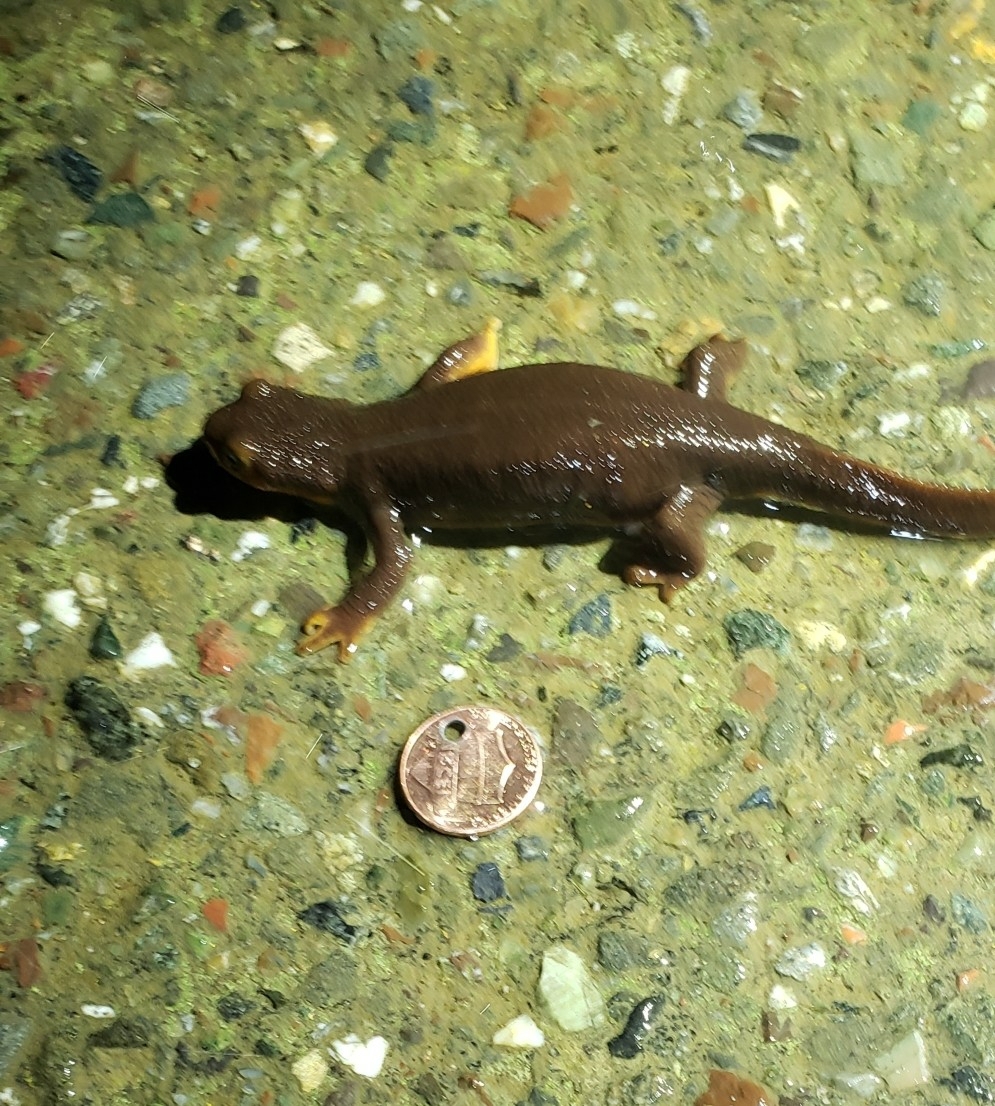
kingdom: Animalia
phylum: Chordata
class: Amphibia
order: Caudata
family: Salamandridae
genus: Taricha
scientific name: Taricha torosa
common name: California newt
